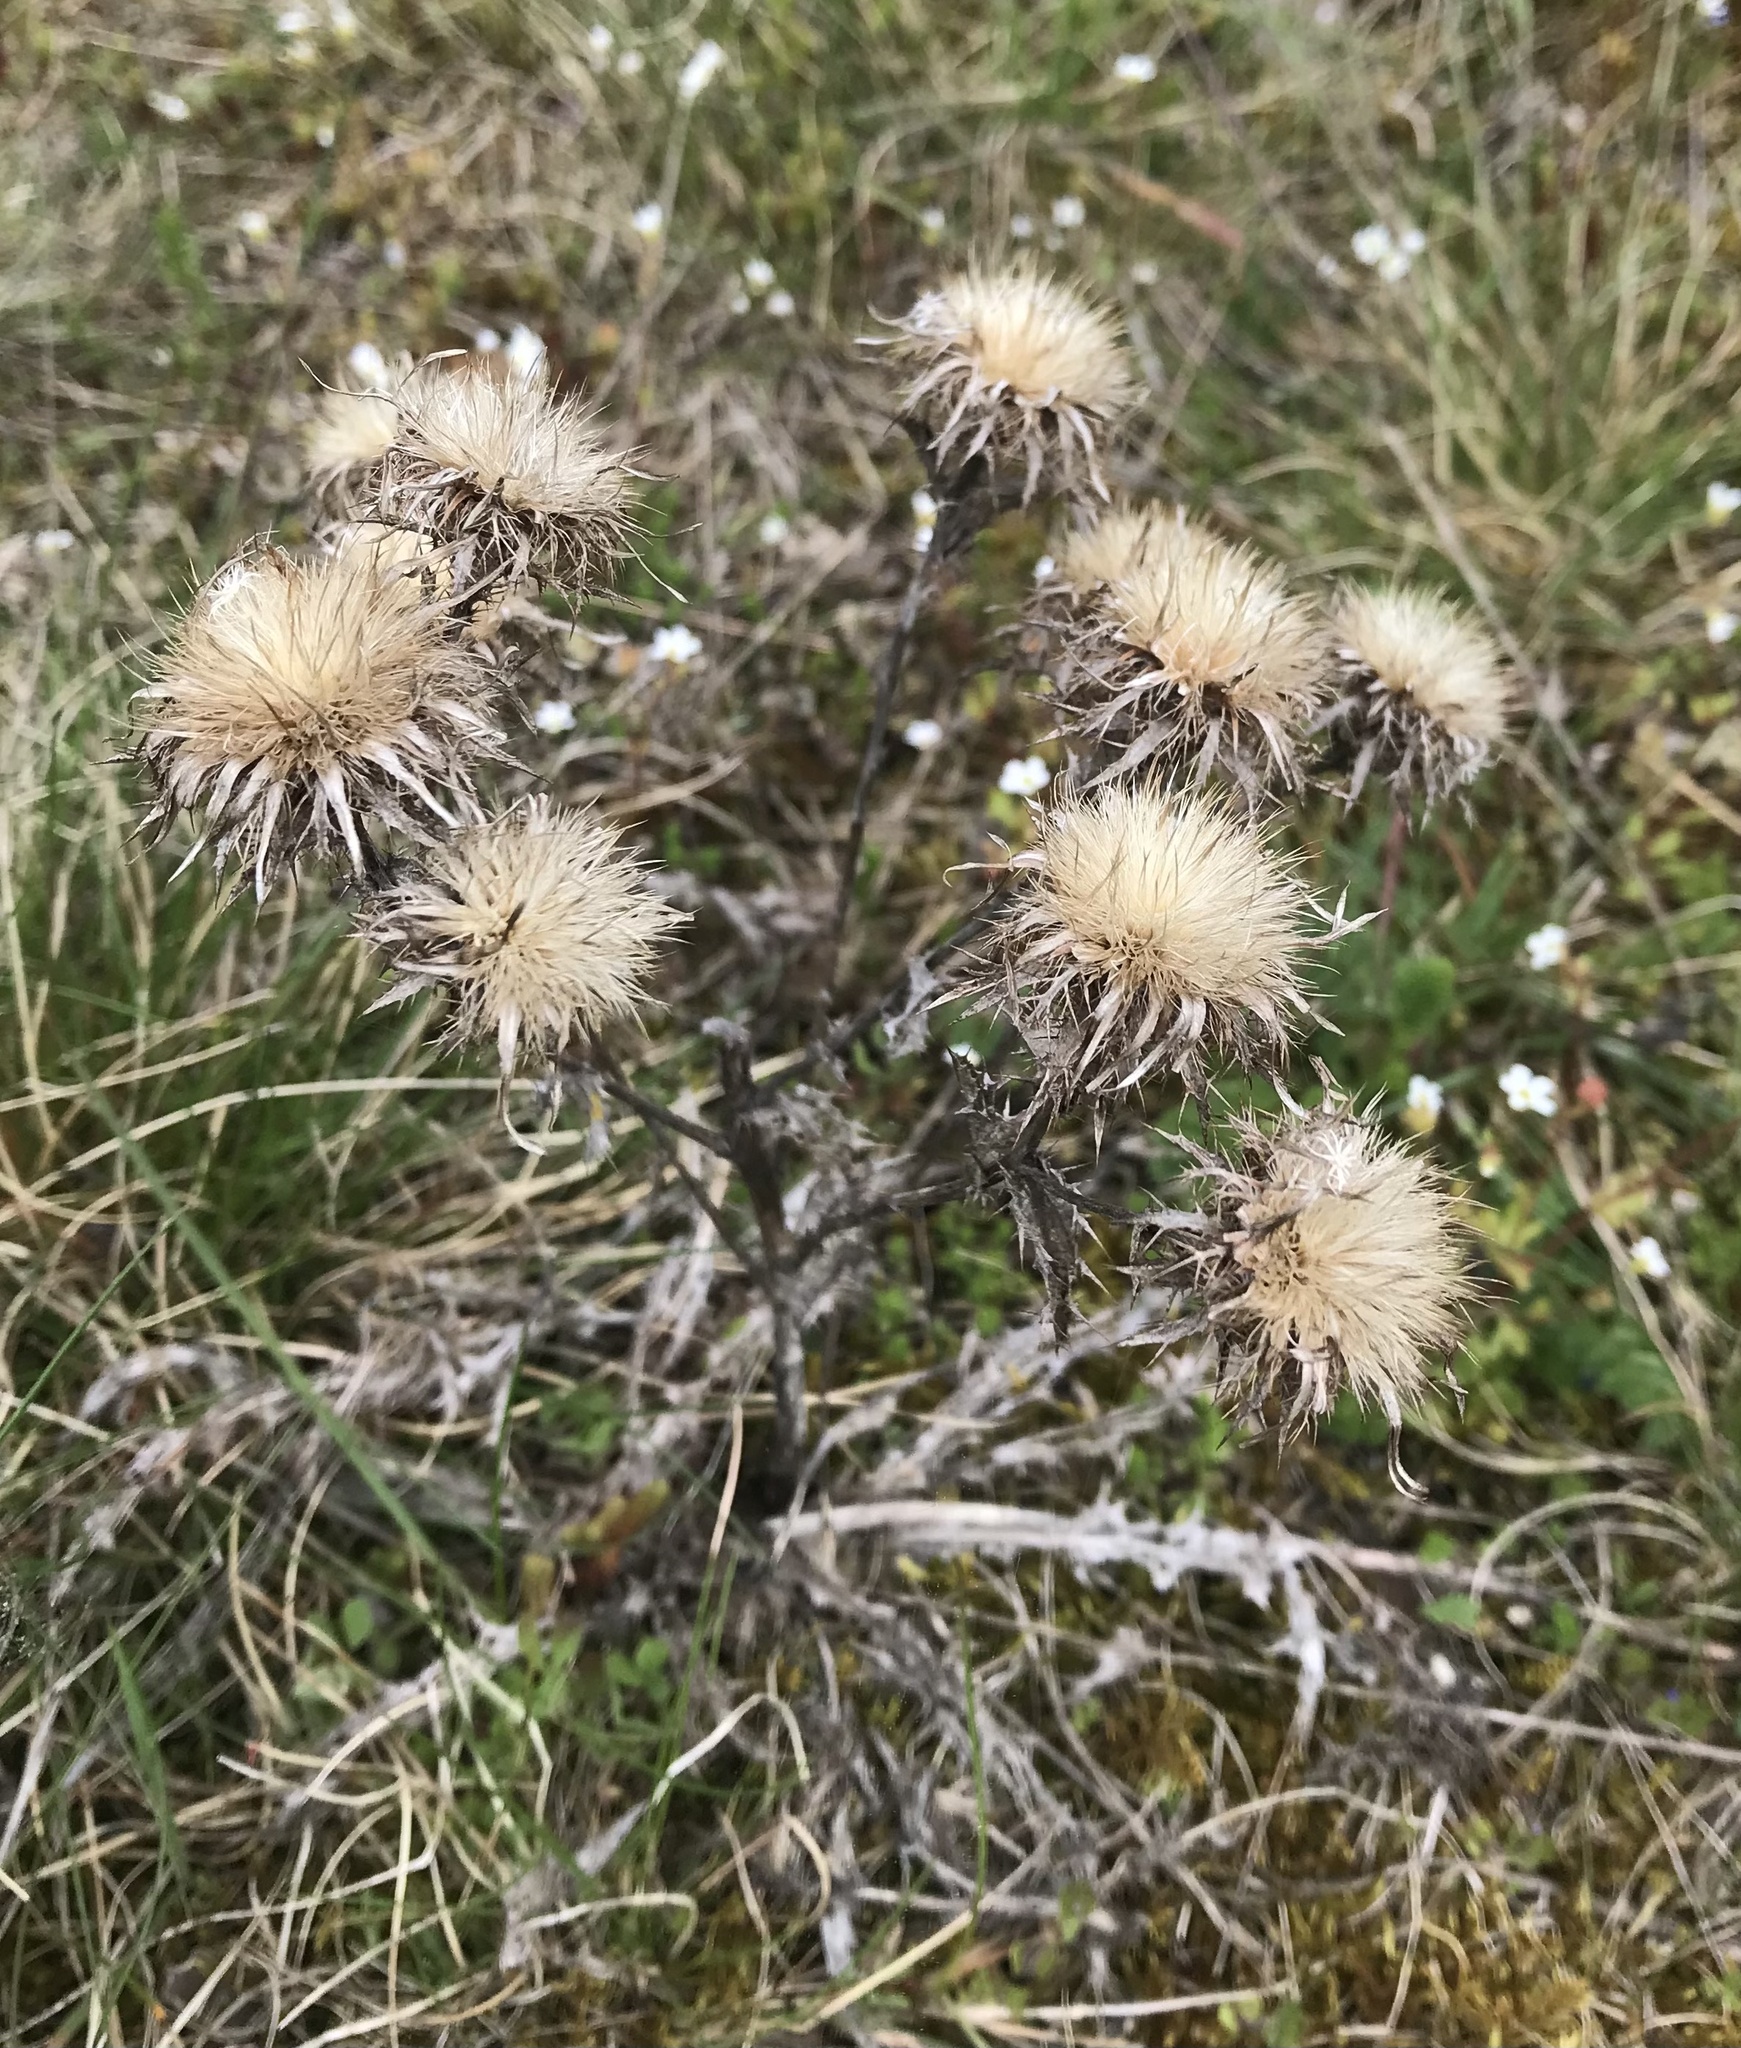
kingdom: Plantae
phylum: Tracheophyta
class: Magnoliopsida
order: Asterales
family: Asteraceae
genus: Carlina
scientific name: Carlina vulgaris
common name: Carline thistle
